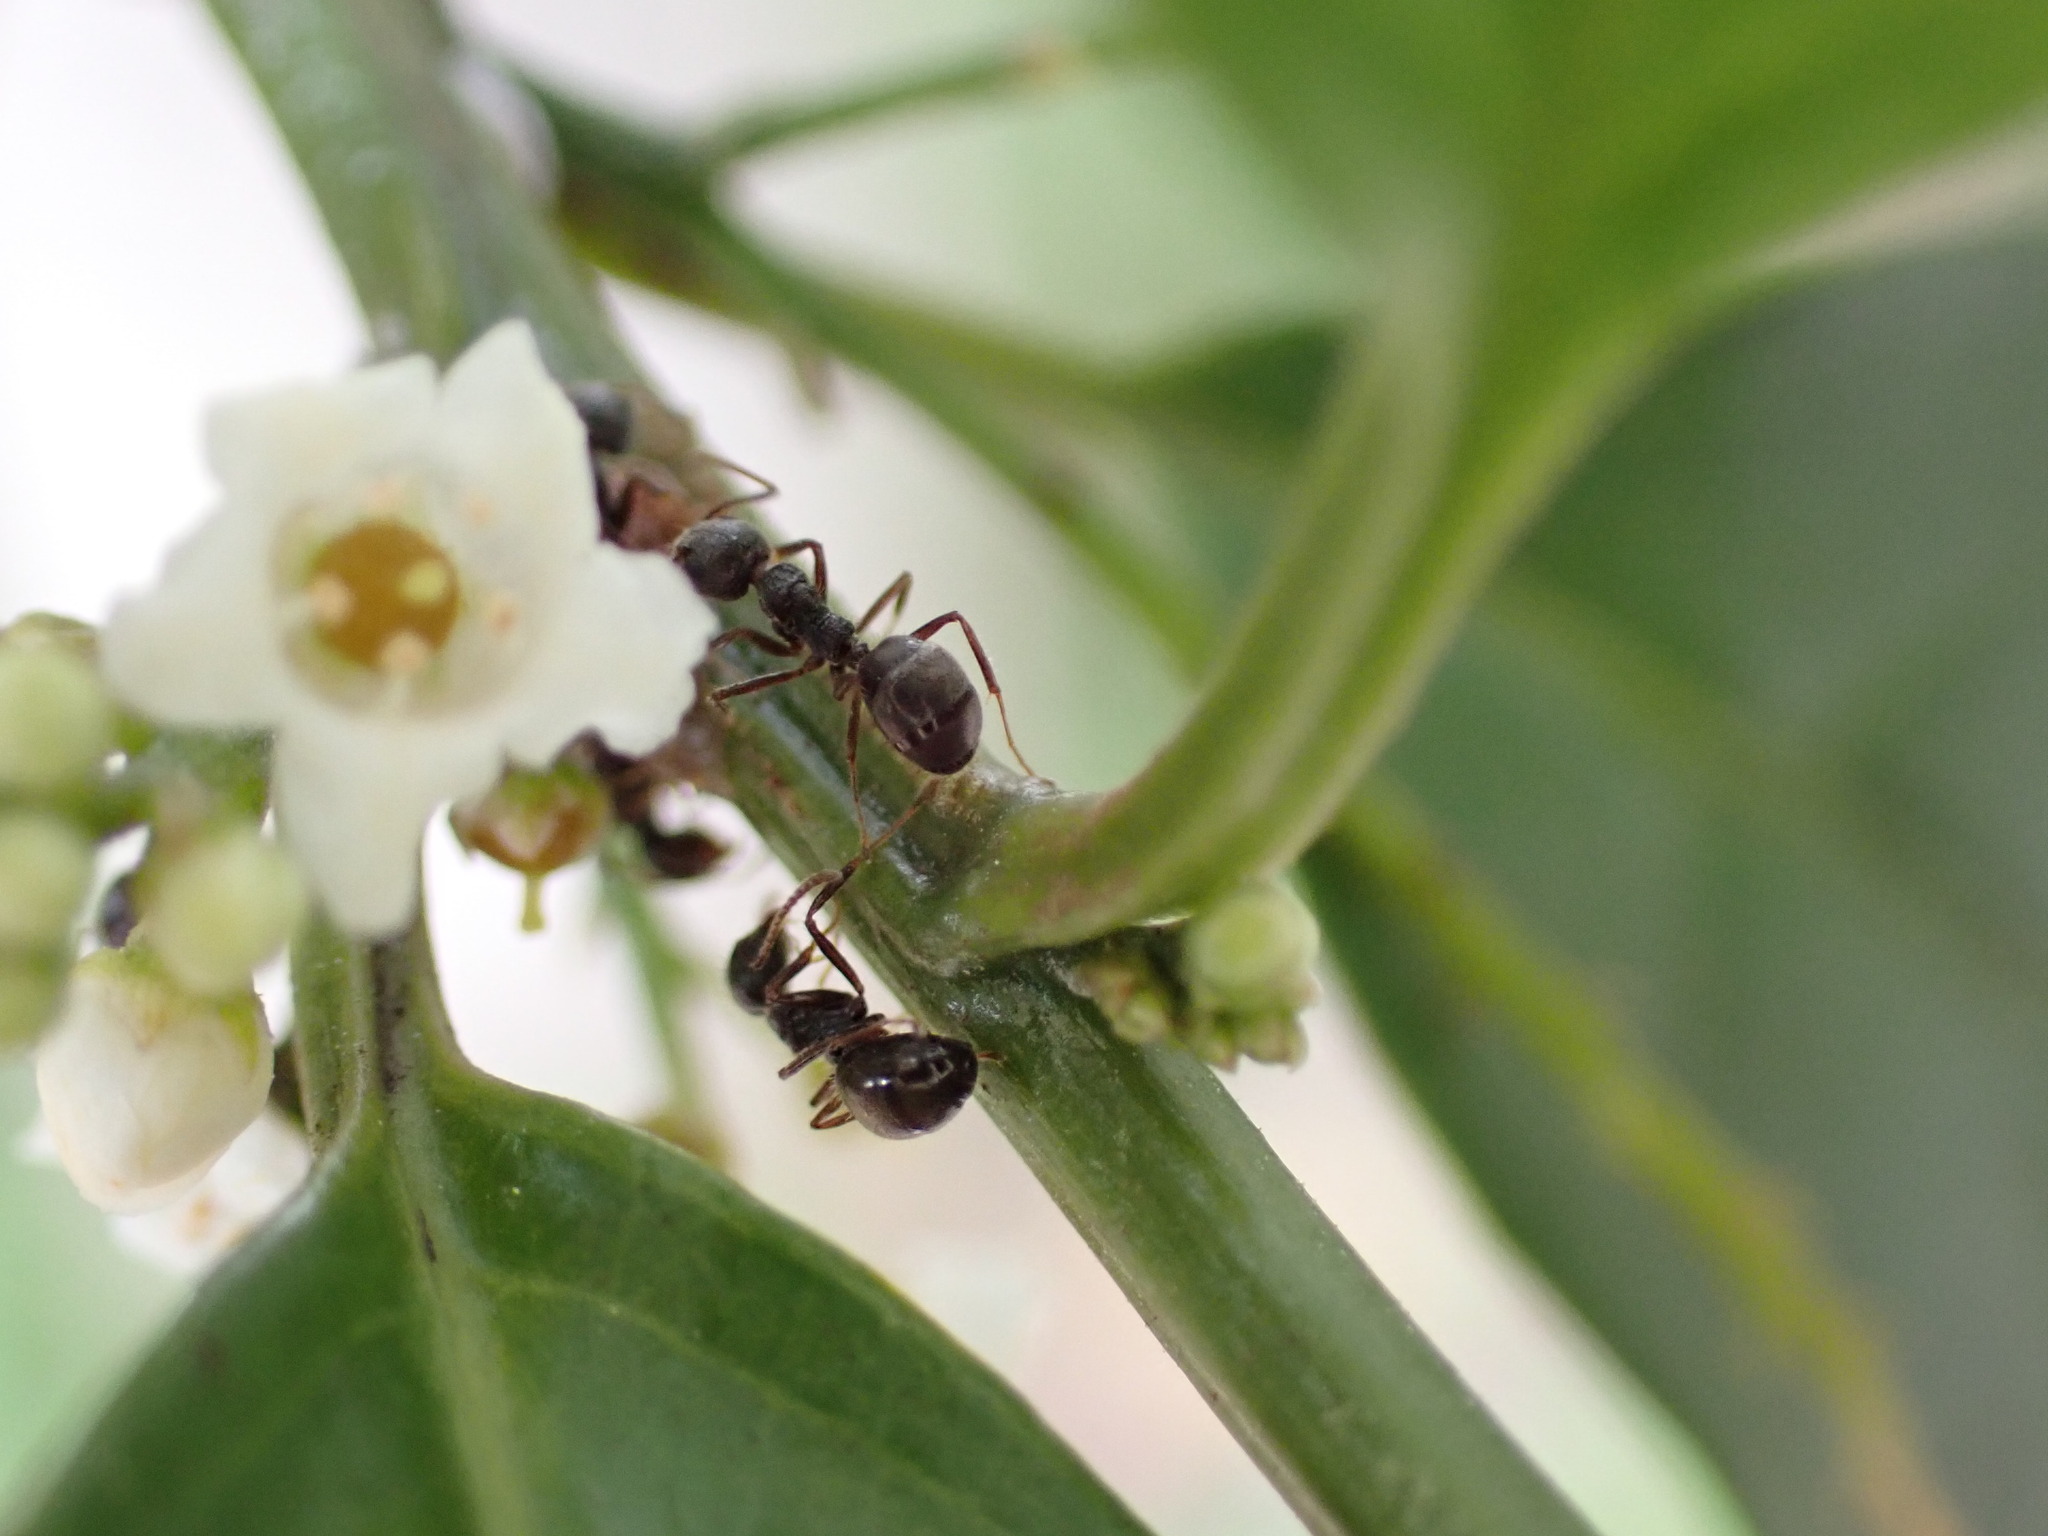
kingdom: Animalia
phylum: Arthropoda
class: Insecta
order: Hymenoptera
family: Formicidae
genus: Dolichoderus
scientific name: Dolichoderus thoracicus
